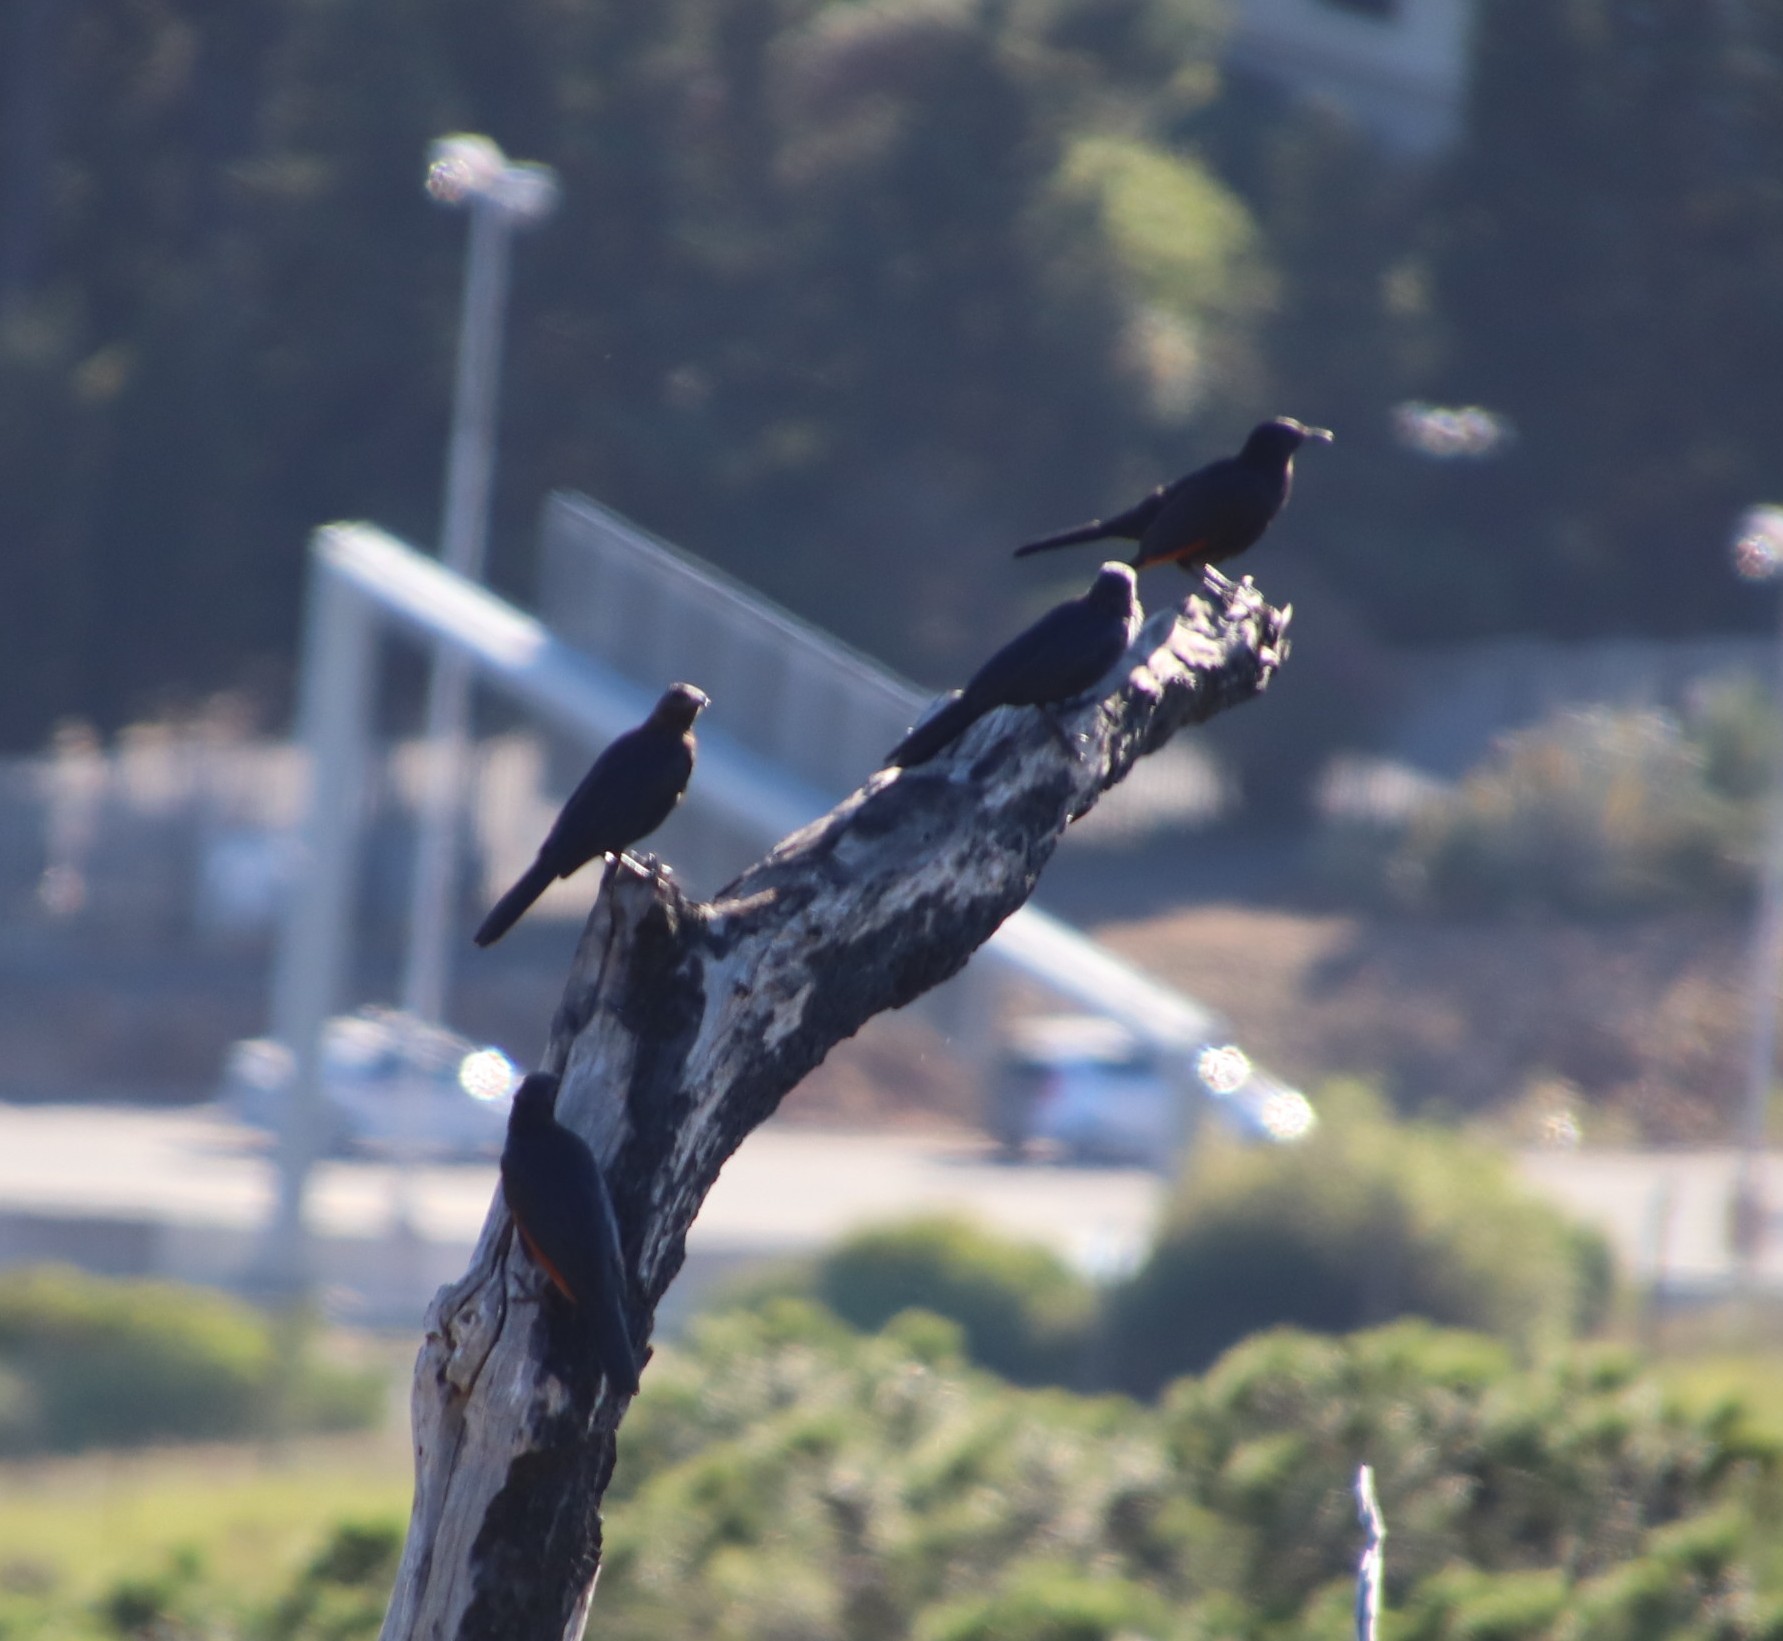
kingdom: Animalia
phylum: Chordata
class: Aves
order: Passeriformes
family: Sturnidae
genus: Onychognathus
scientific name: Onychognathus morio
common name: Red-winged starling
